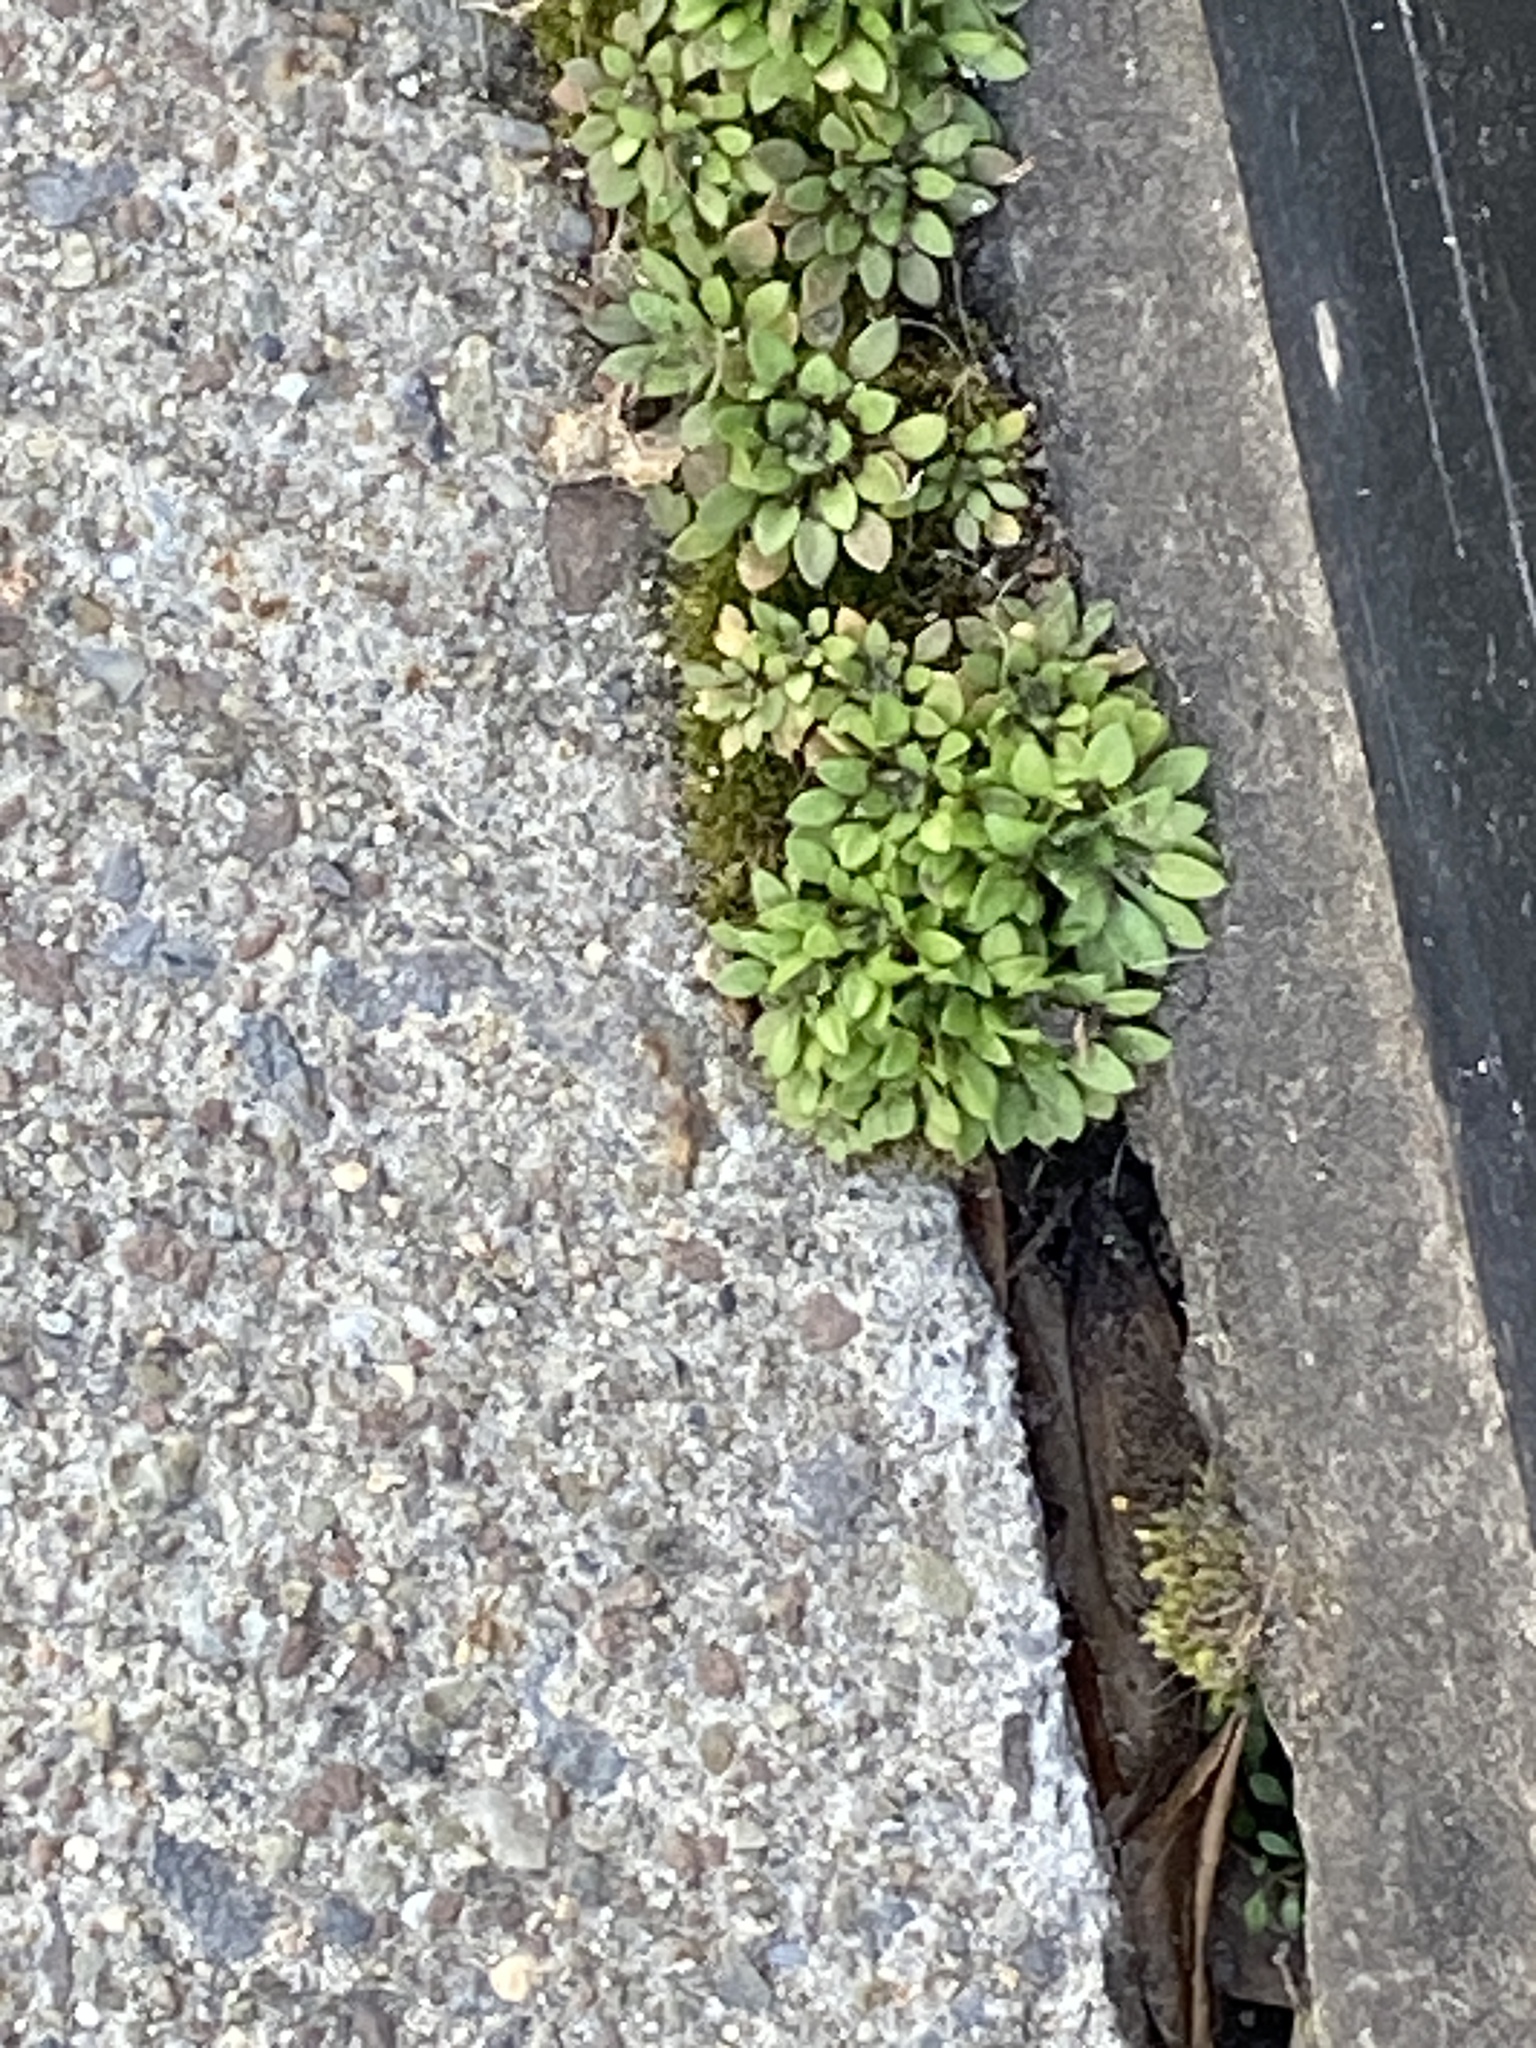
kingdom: Plantae
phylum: Tracheophyta
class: Magnoliopsida
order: Brassicales
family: Brassicaceae
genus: Draba
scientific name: Draba verna
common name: Spring draba
